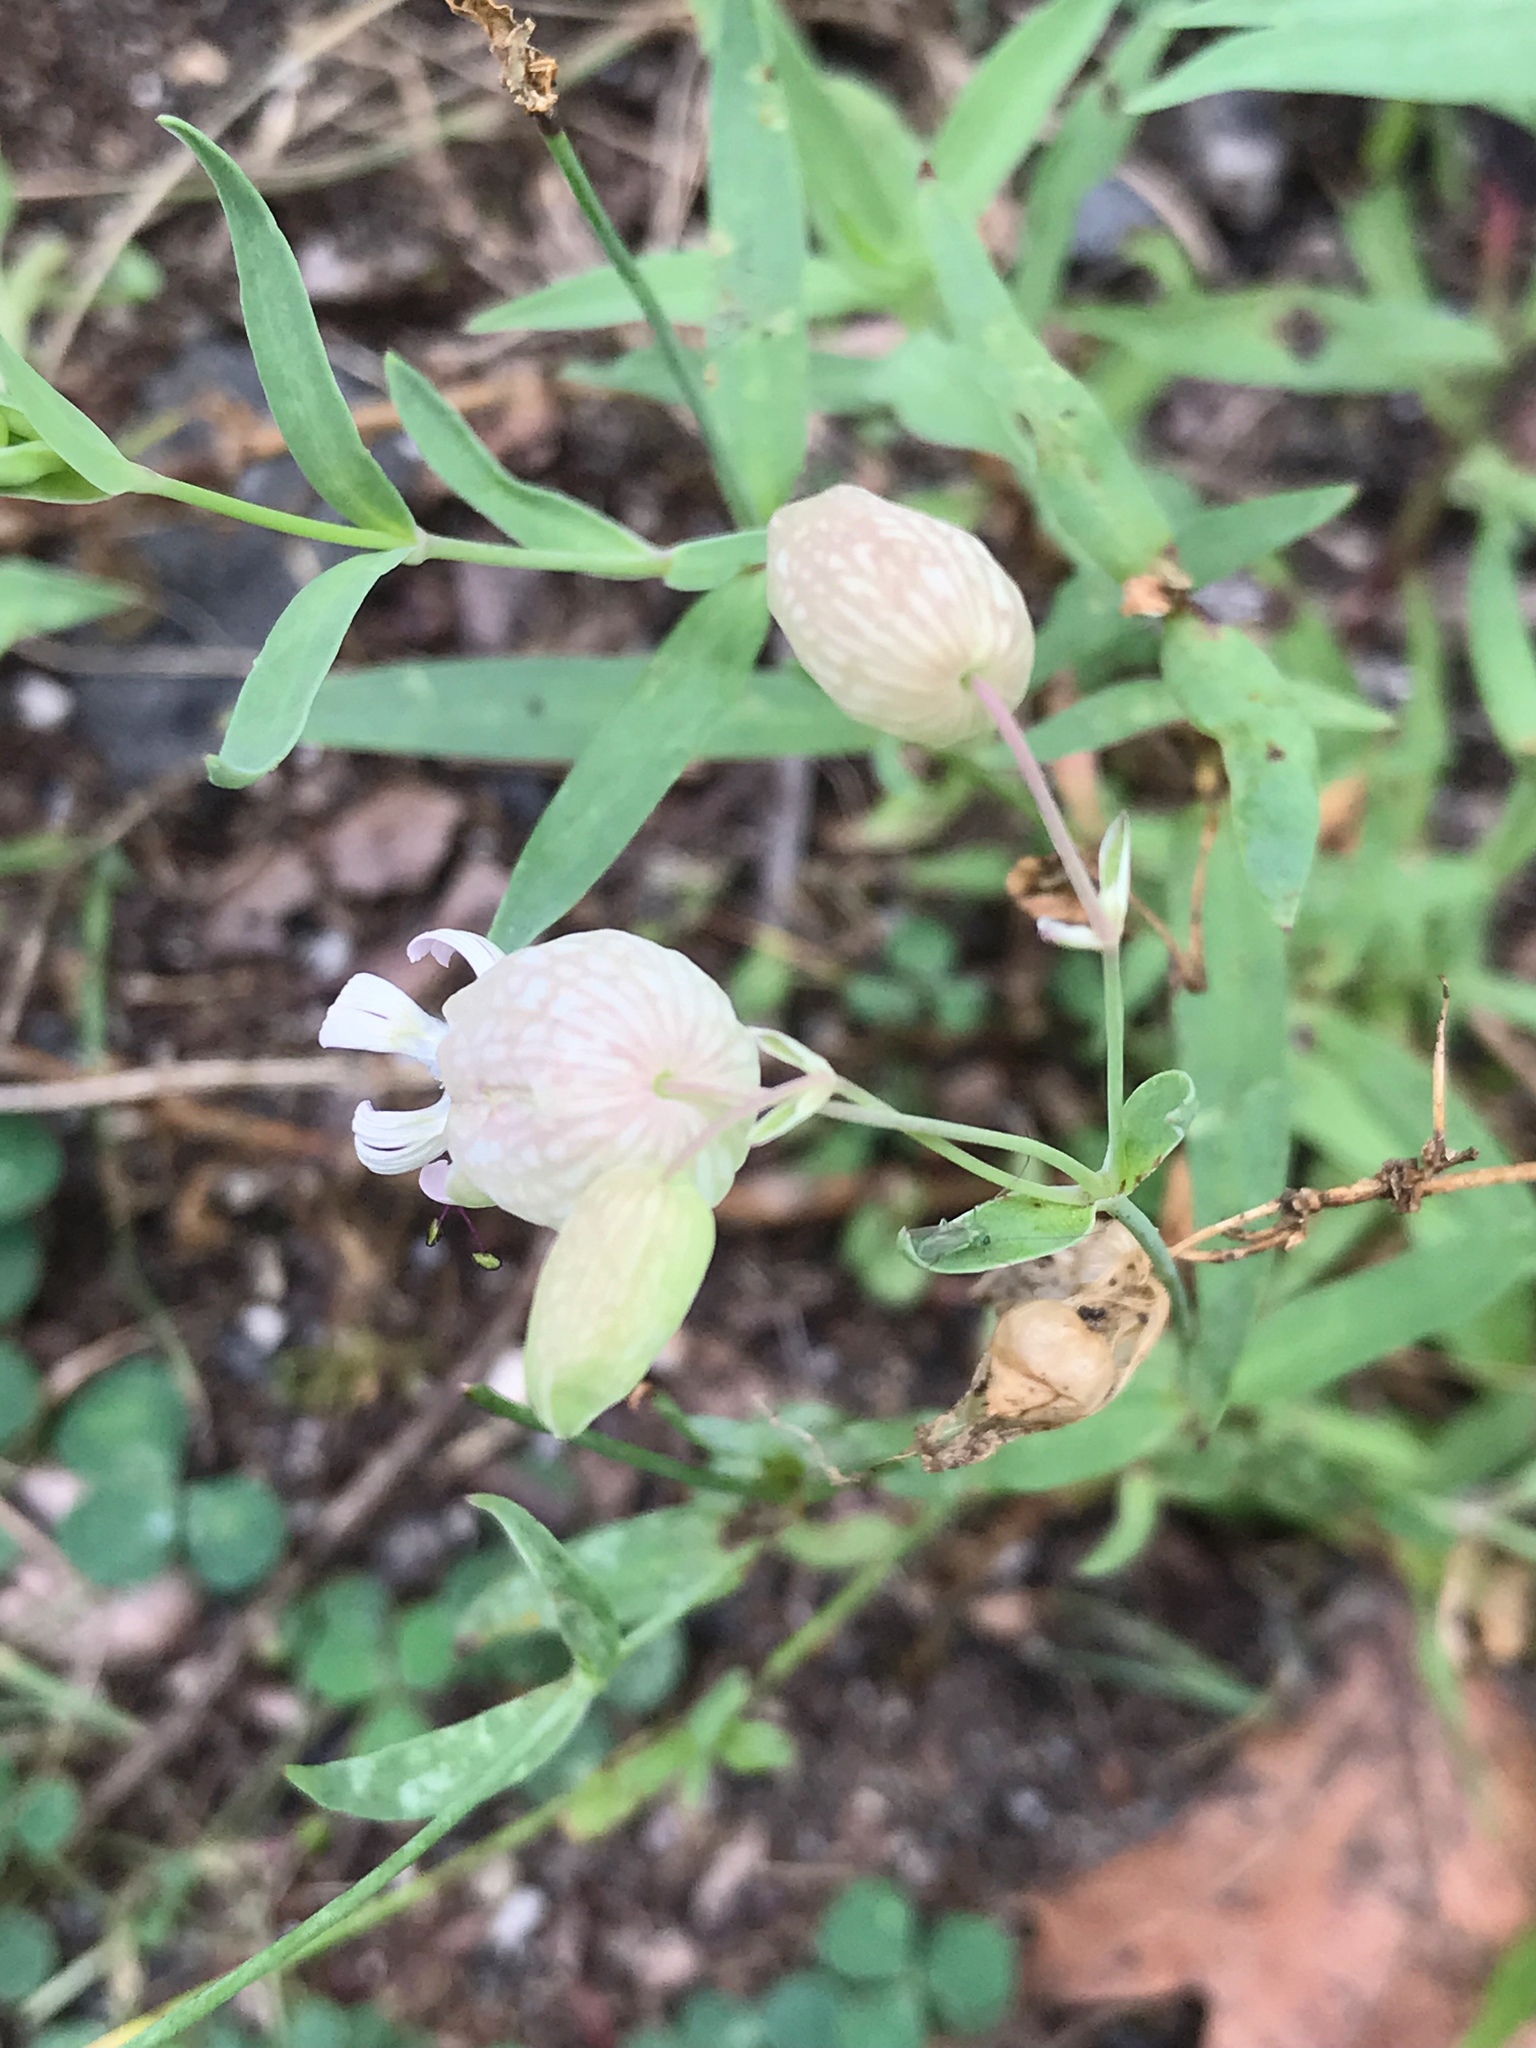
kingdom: Plantae
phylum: Tracheophyta
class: Magnoliopsida
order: Caryophyllales
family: Caryophyllaceae
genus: Silene
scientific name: Silene vulgaris
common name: Bladder campion
